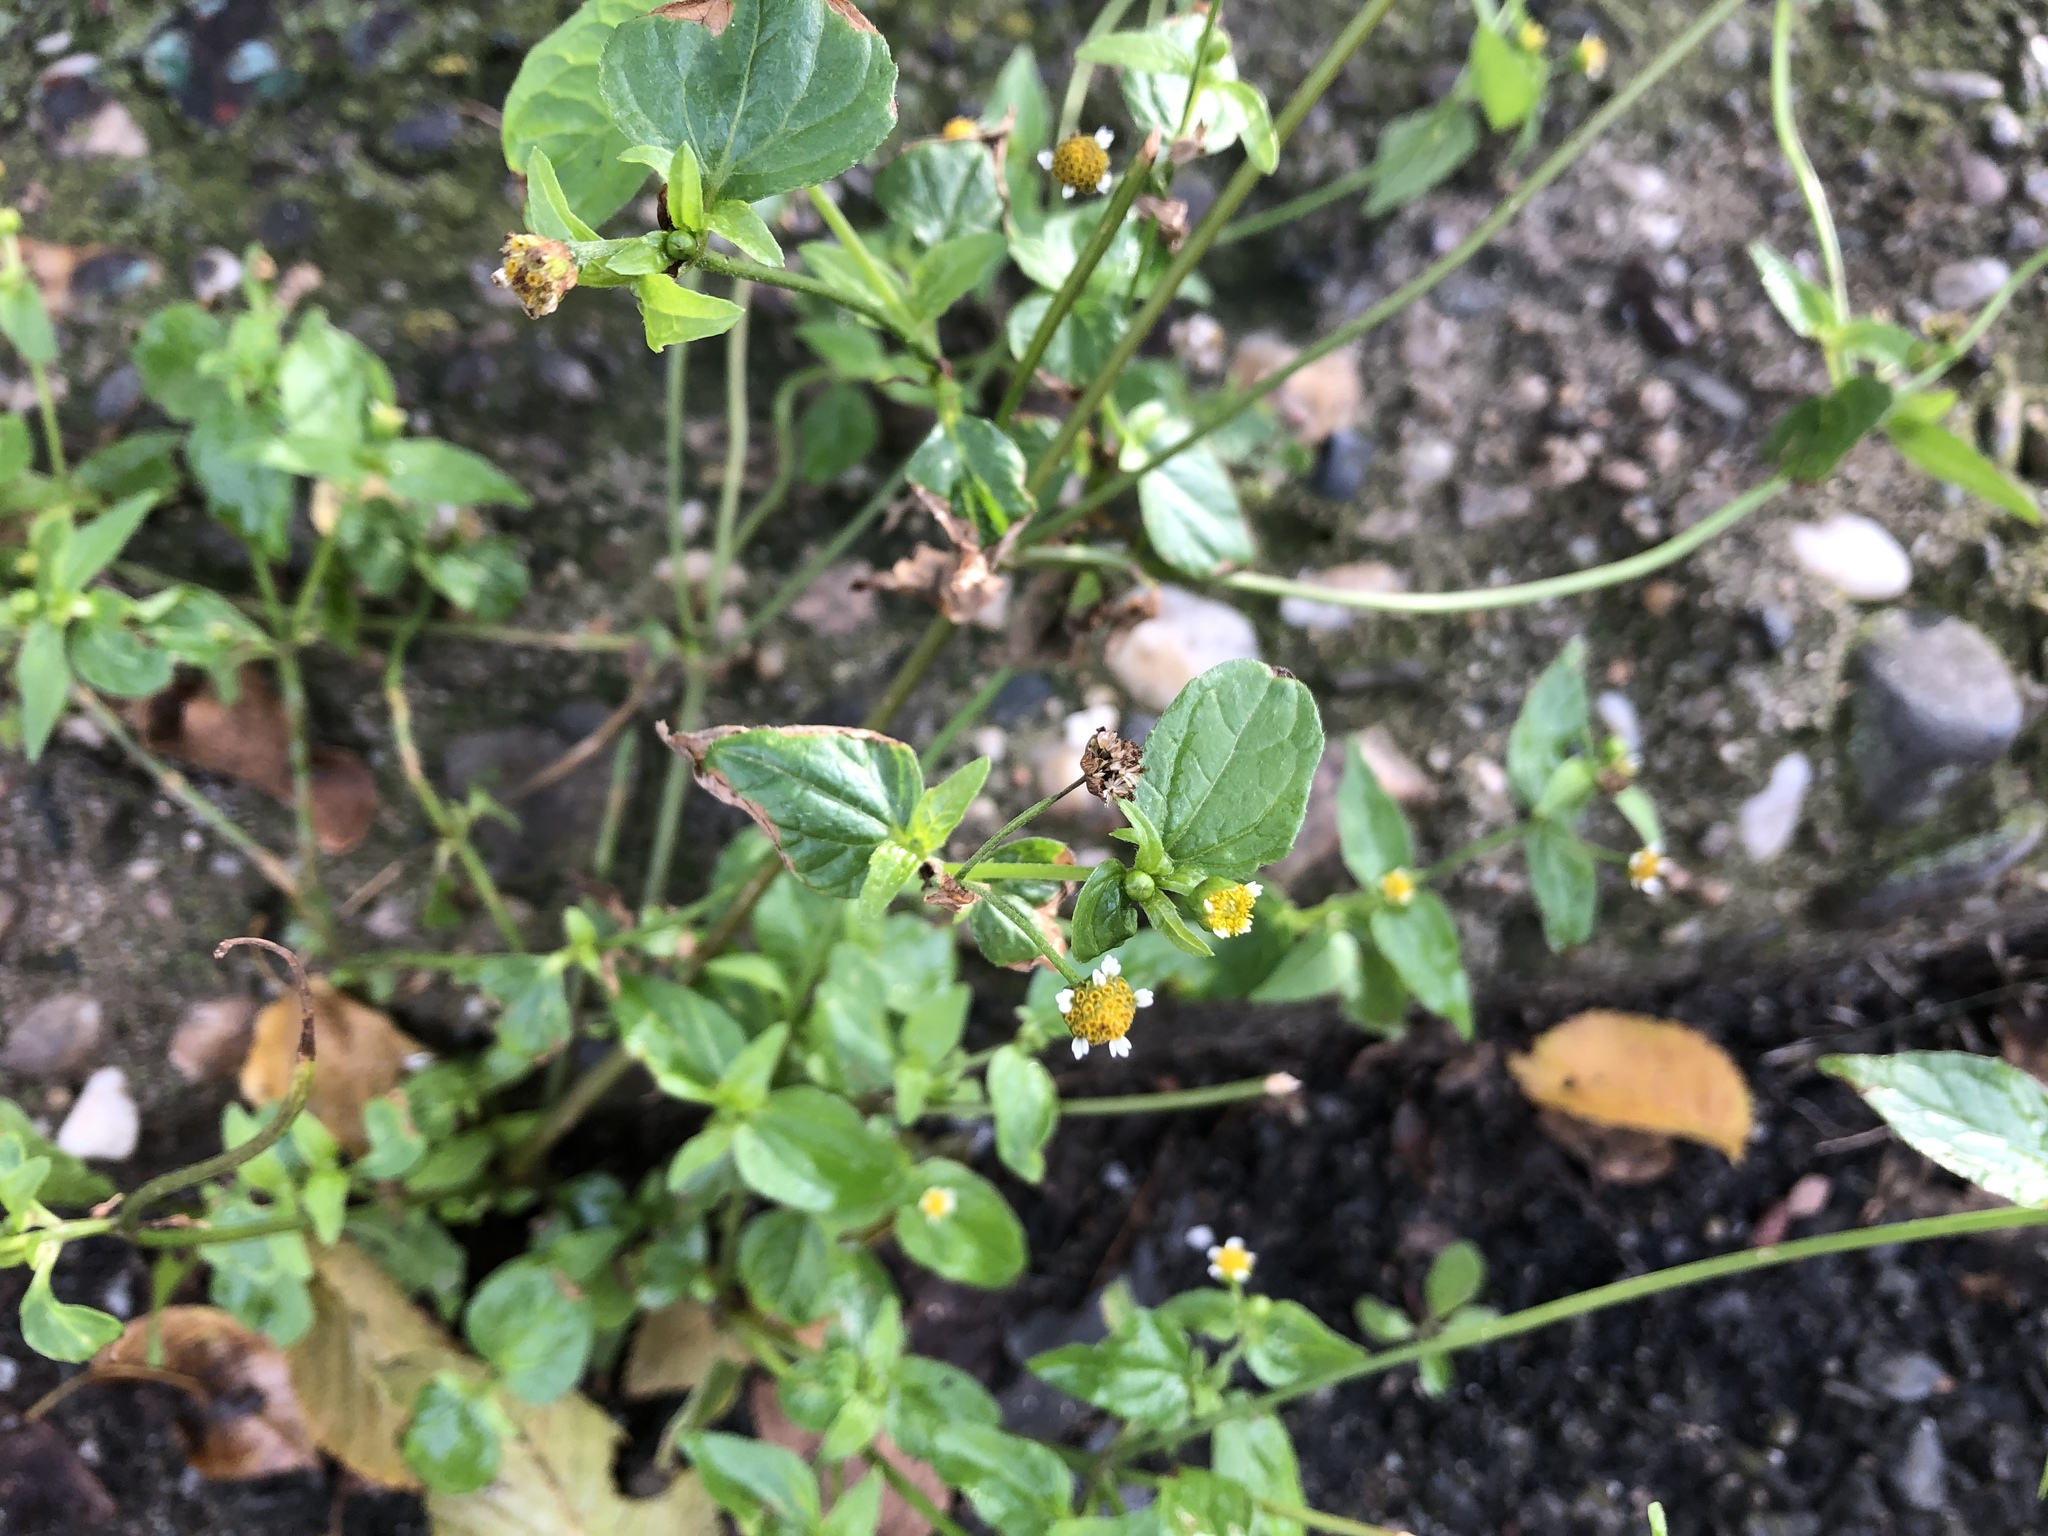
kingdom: Plantae
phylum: Tracheophyta
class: Magnoliopsida
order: Asterales
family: Asteraceae
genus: Galinsoga
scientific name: Galinsoga parviflora
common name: Gallant soldier
